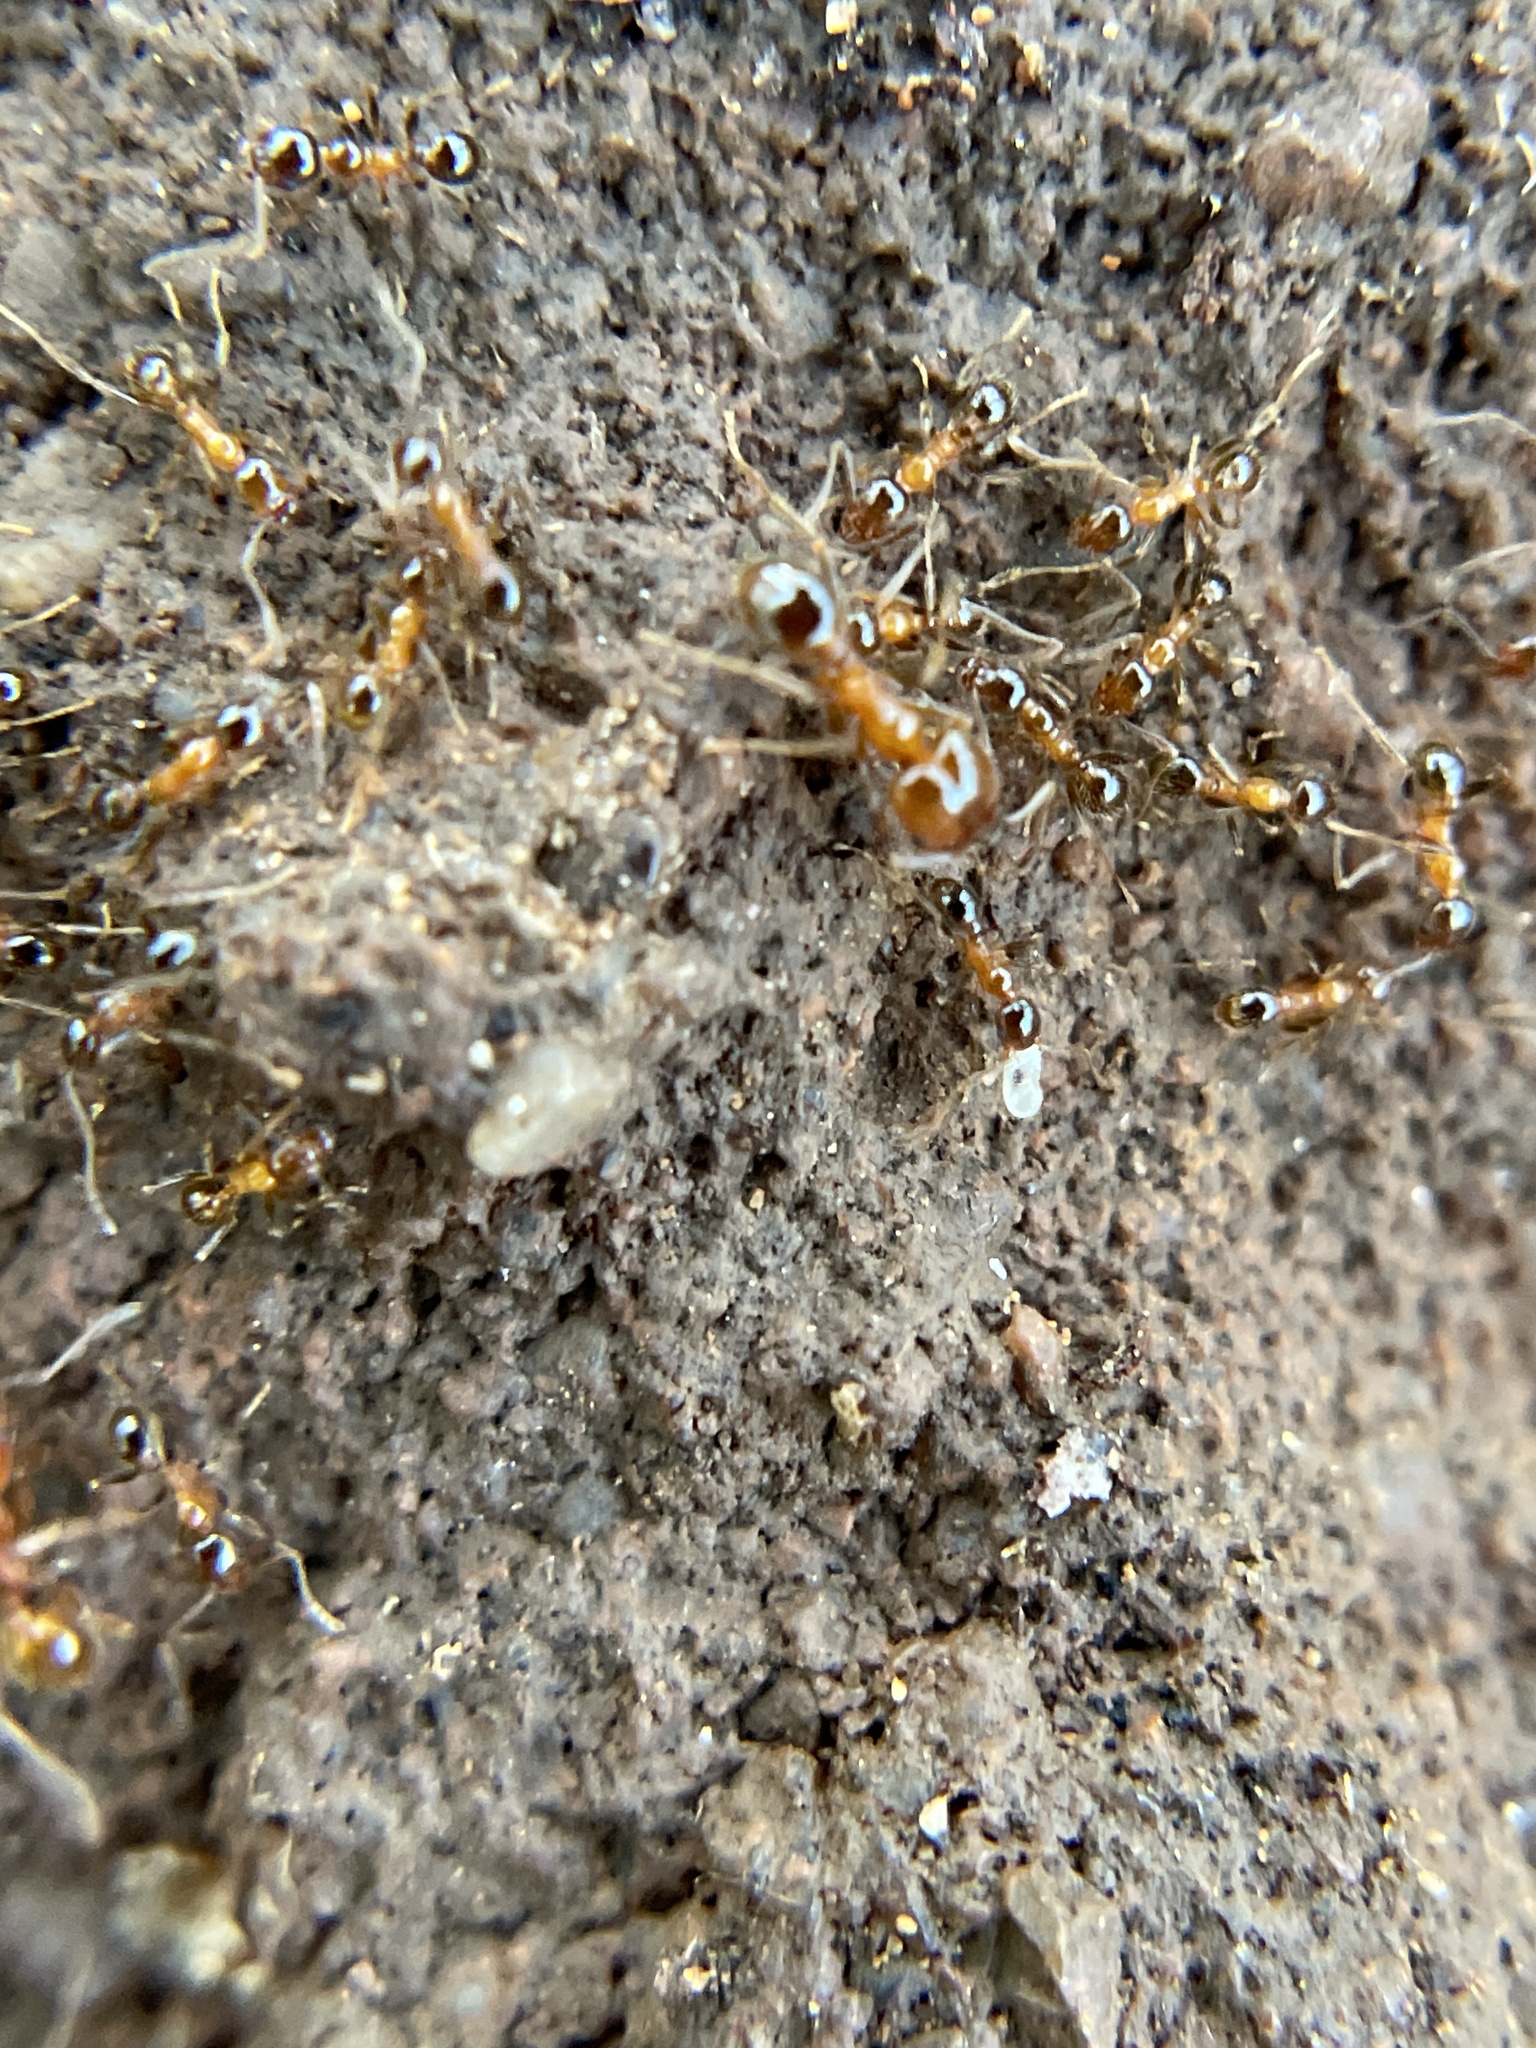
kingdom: Animalia
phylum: Arthropoda
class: Insecta
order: Hymenoptera
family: Formicidae
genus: Pheidole
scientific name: Pheidole dentata
